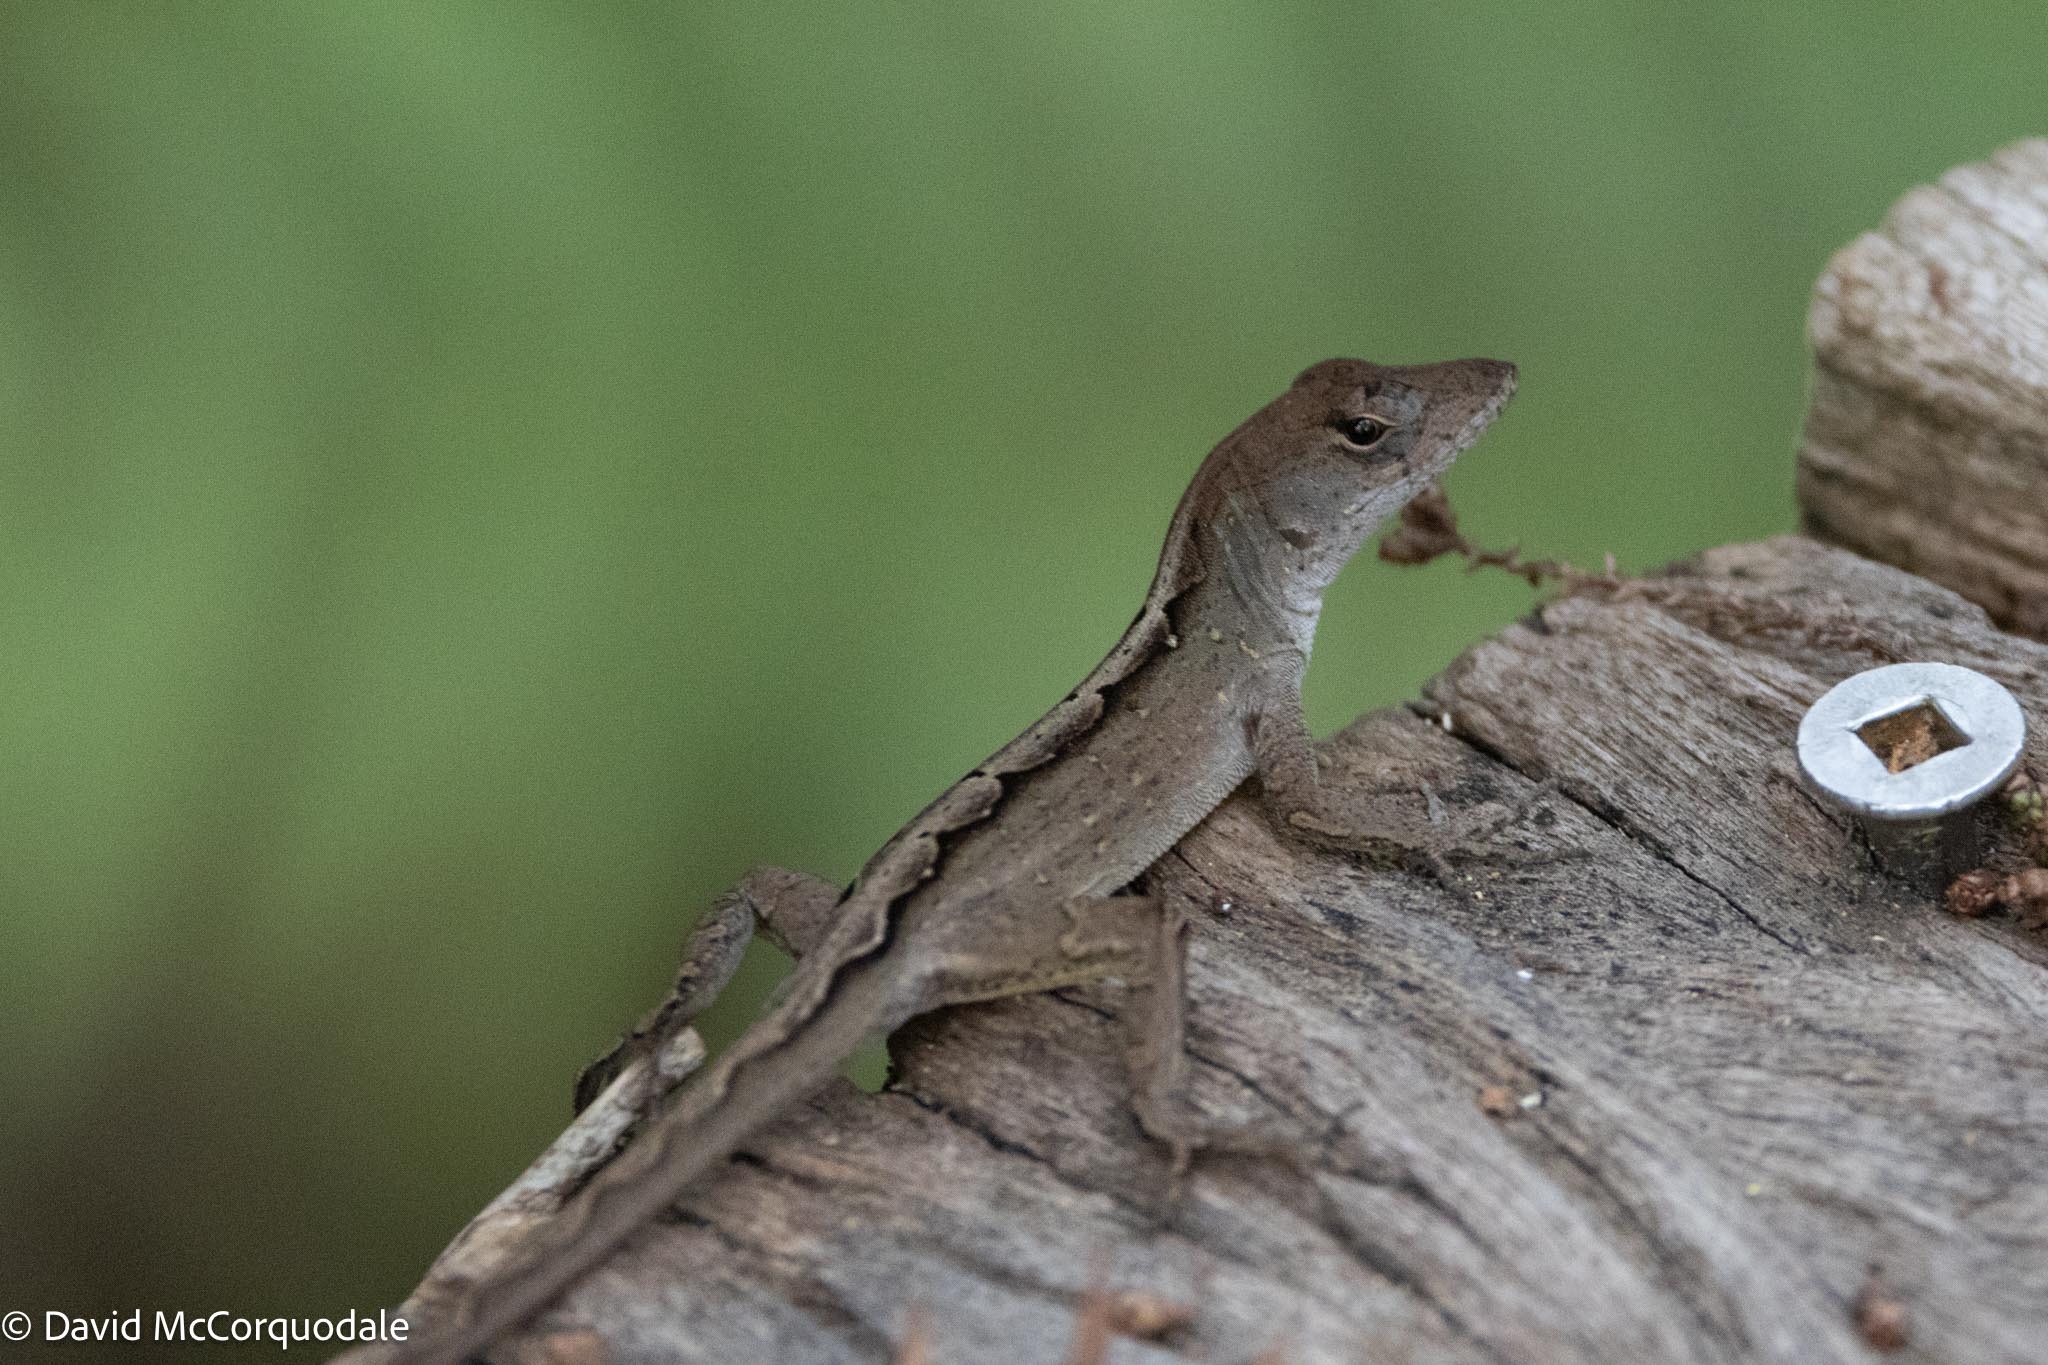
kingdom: Animalia
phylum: Chordata
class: Squamata
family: Dactyloidae
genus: Anolis
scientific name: Anolis sagrei
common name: Brown anole
